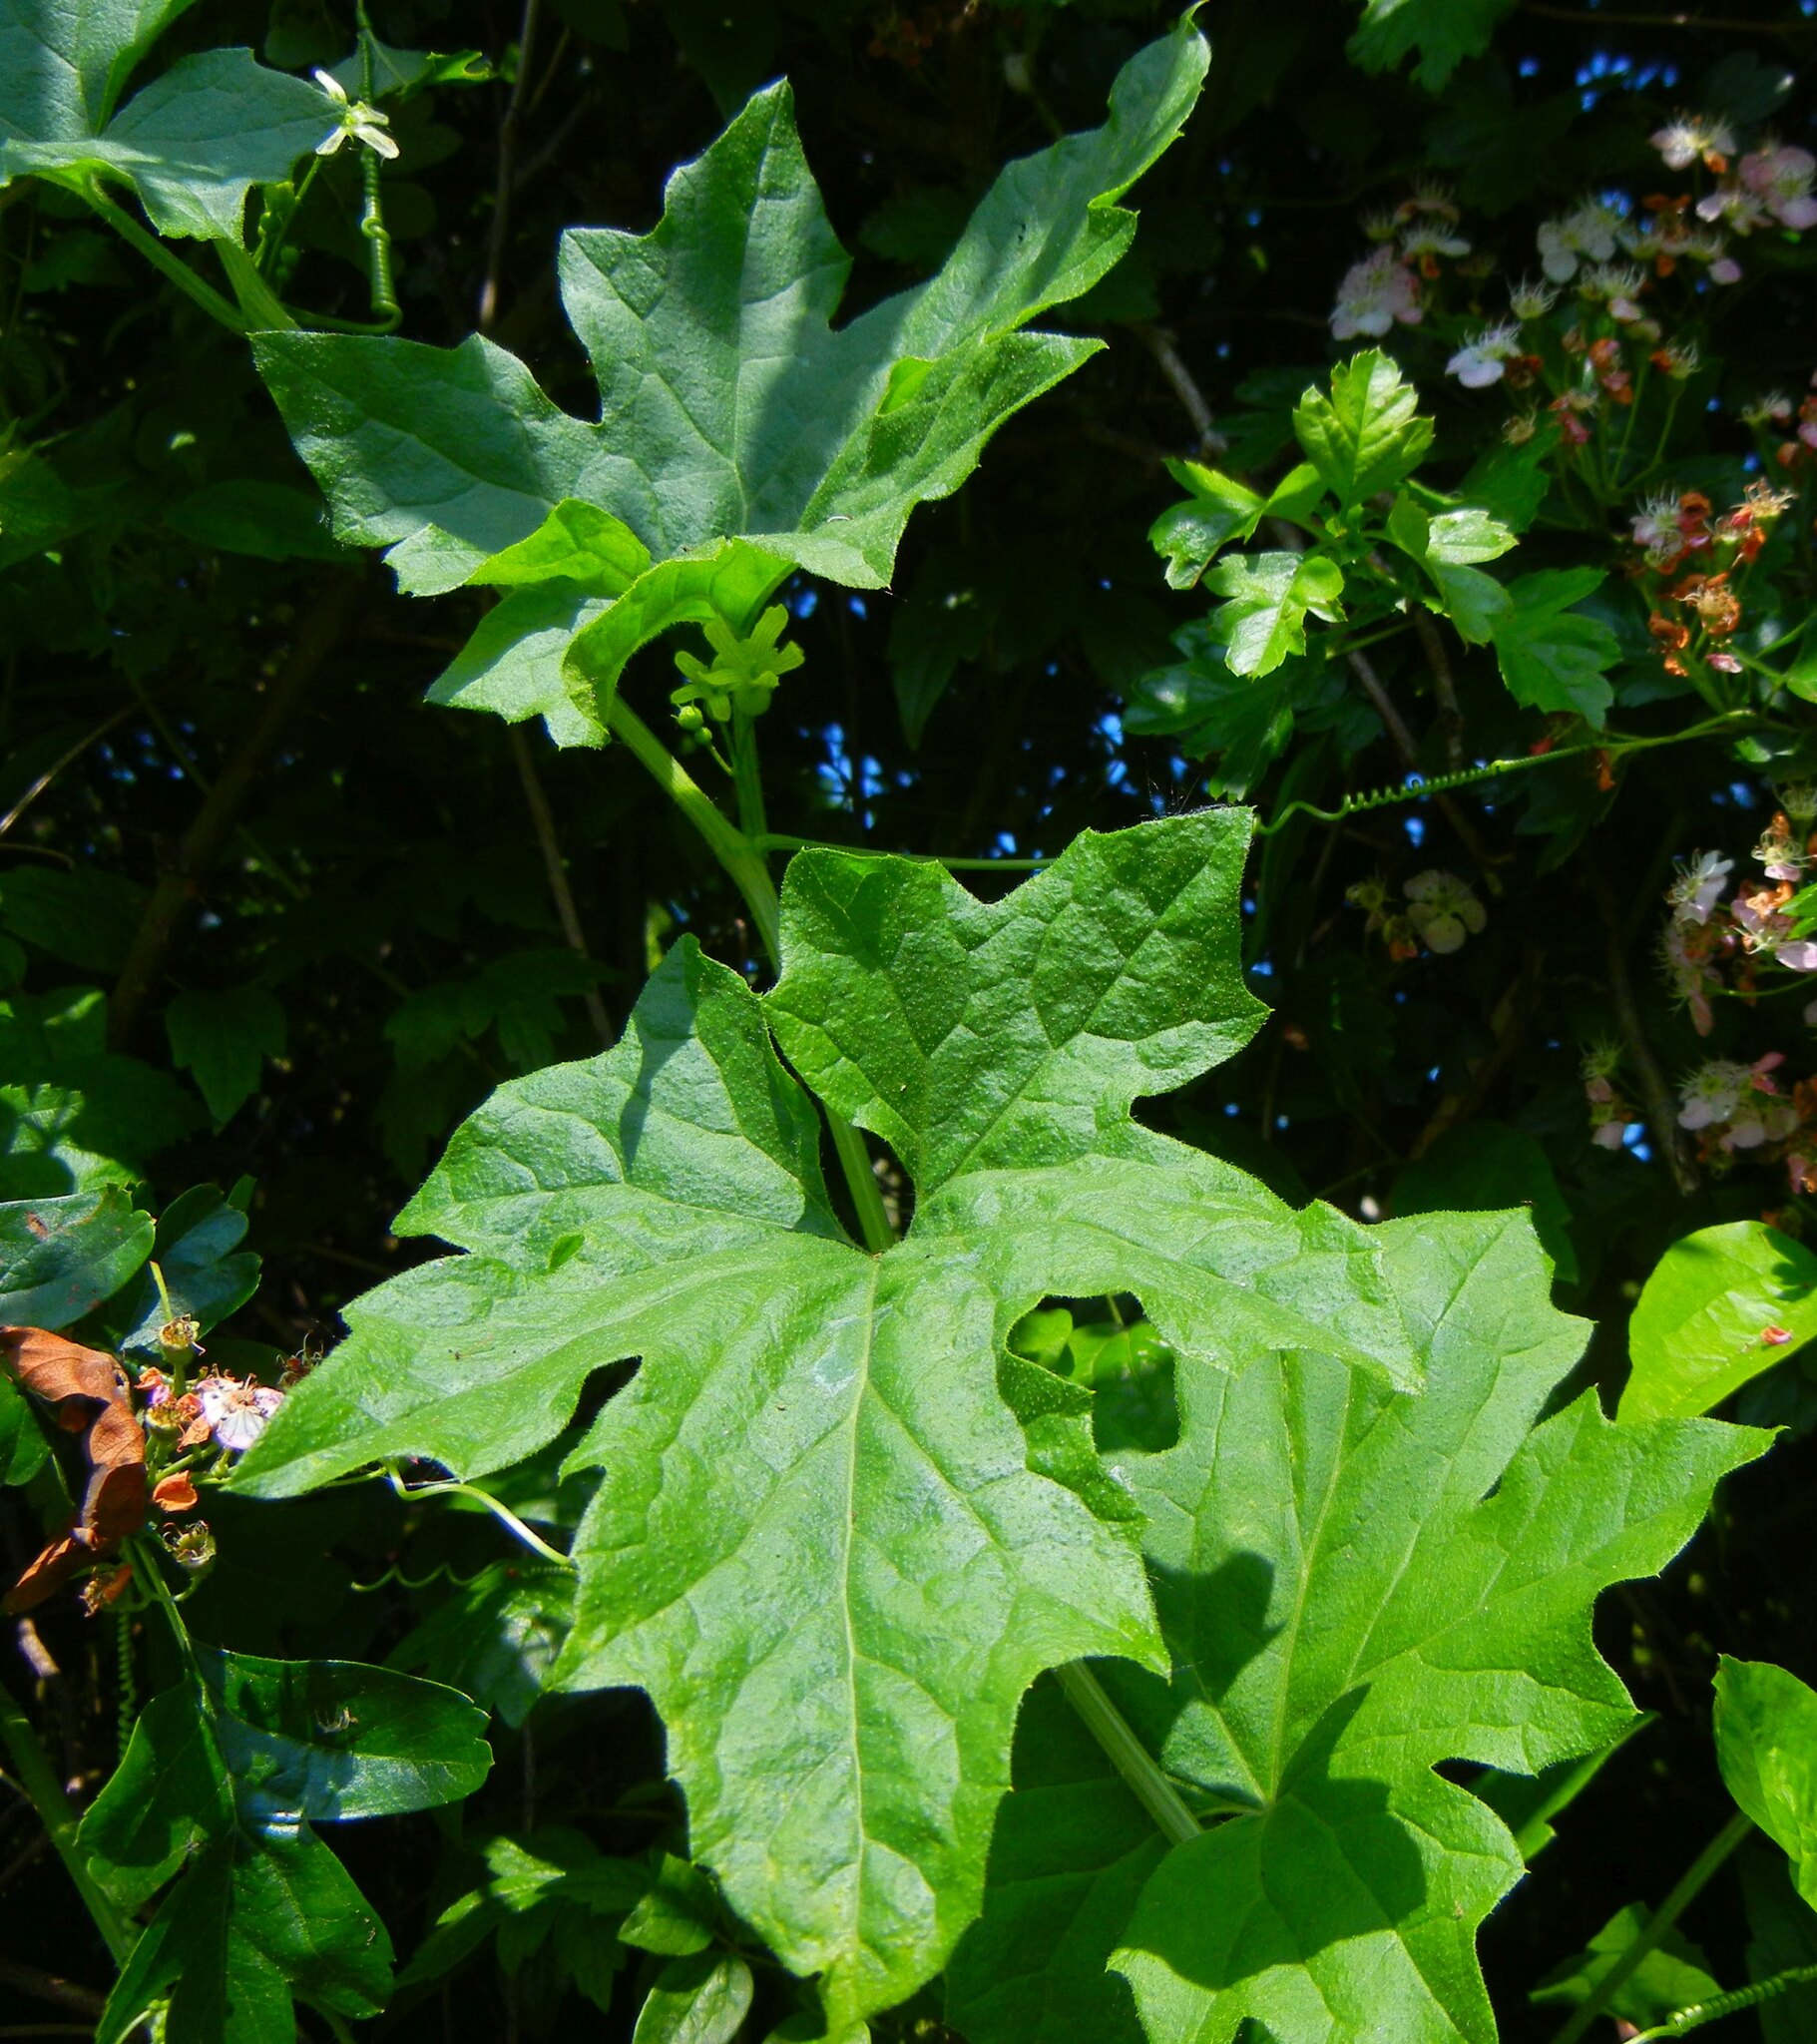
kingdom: Plantae
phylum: Tracheophyta
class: Magnoliopsida
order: Cucurbitales
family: Cucurbitaceae
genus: Bryonia
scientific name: Bryonia cretica
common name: Cretan bryony
